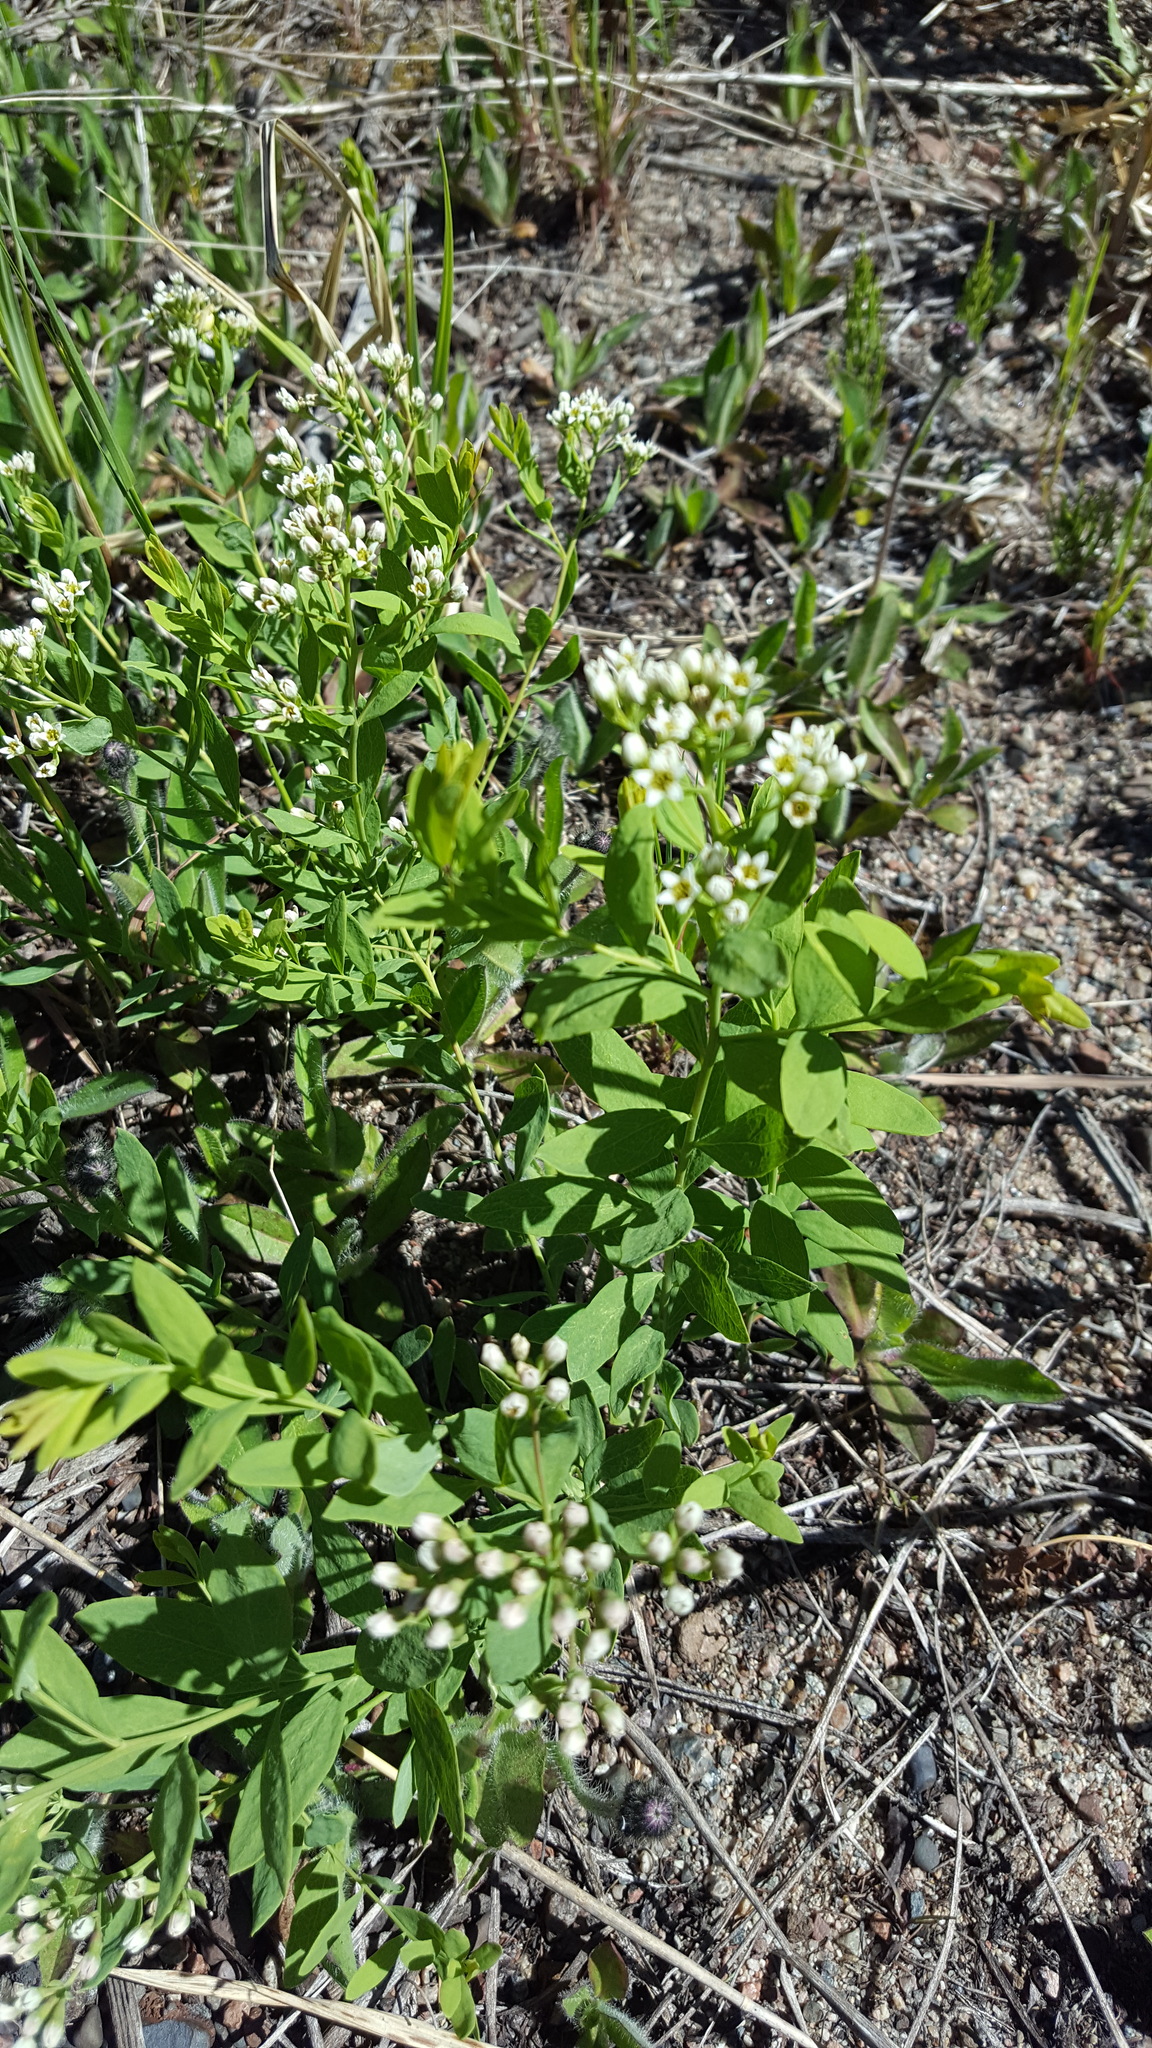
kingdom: Plantae
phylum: Tracheophyta
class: Magnoliopsida
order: Santalales
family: Comandraceae
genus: Comandra
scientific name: Comandra umbellata
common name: Bastard toadflax
